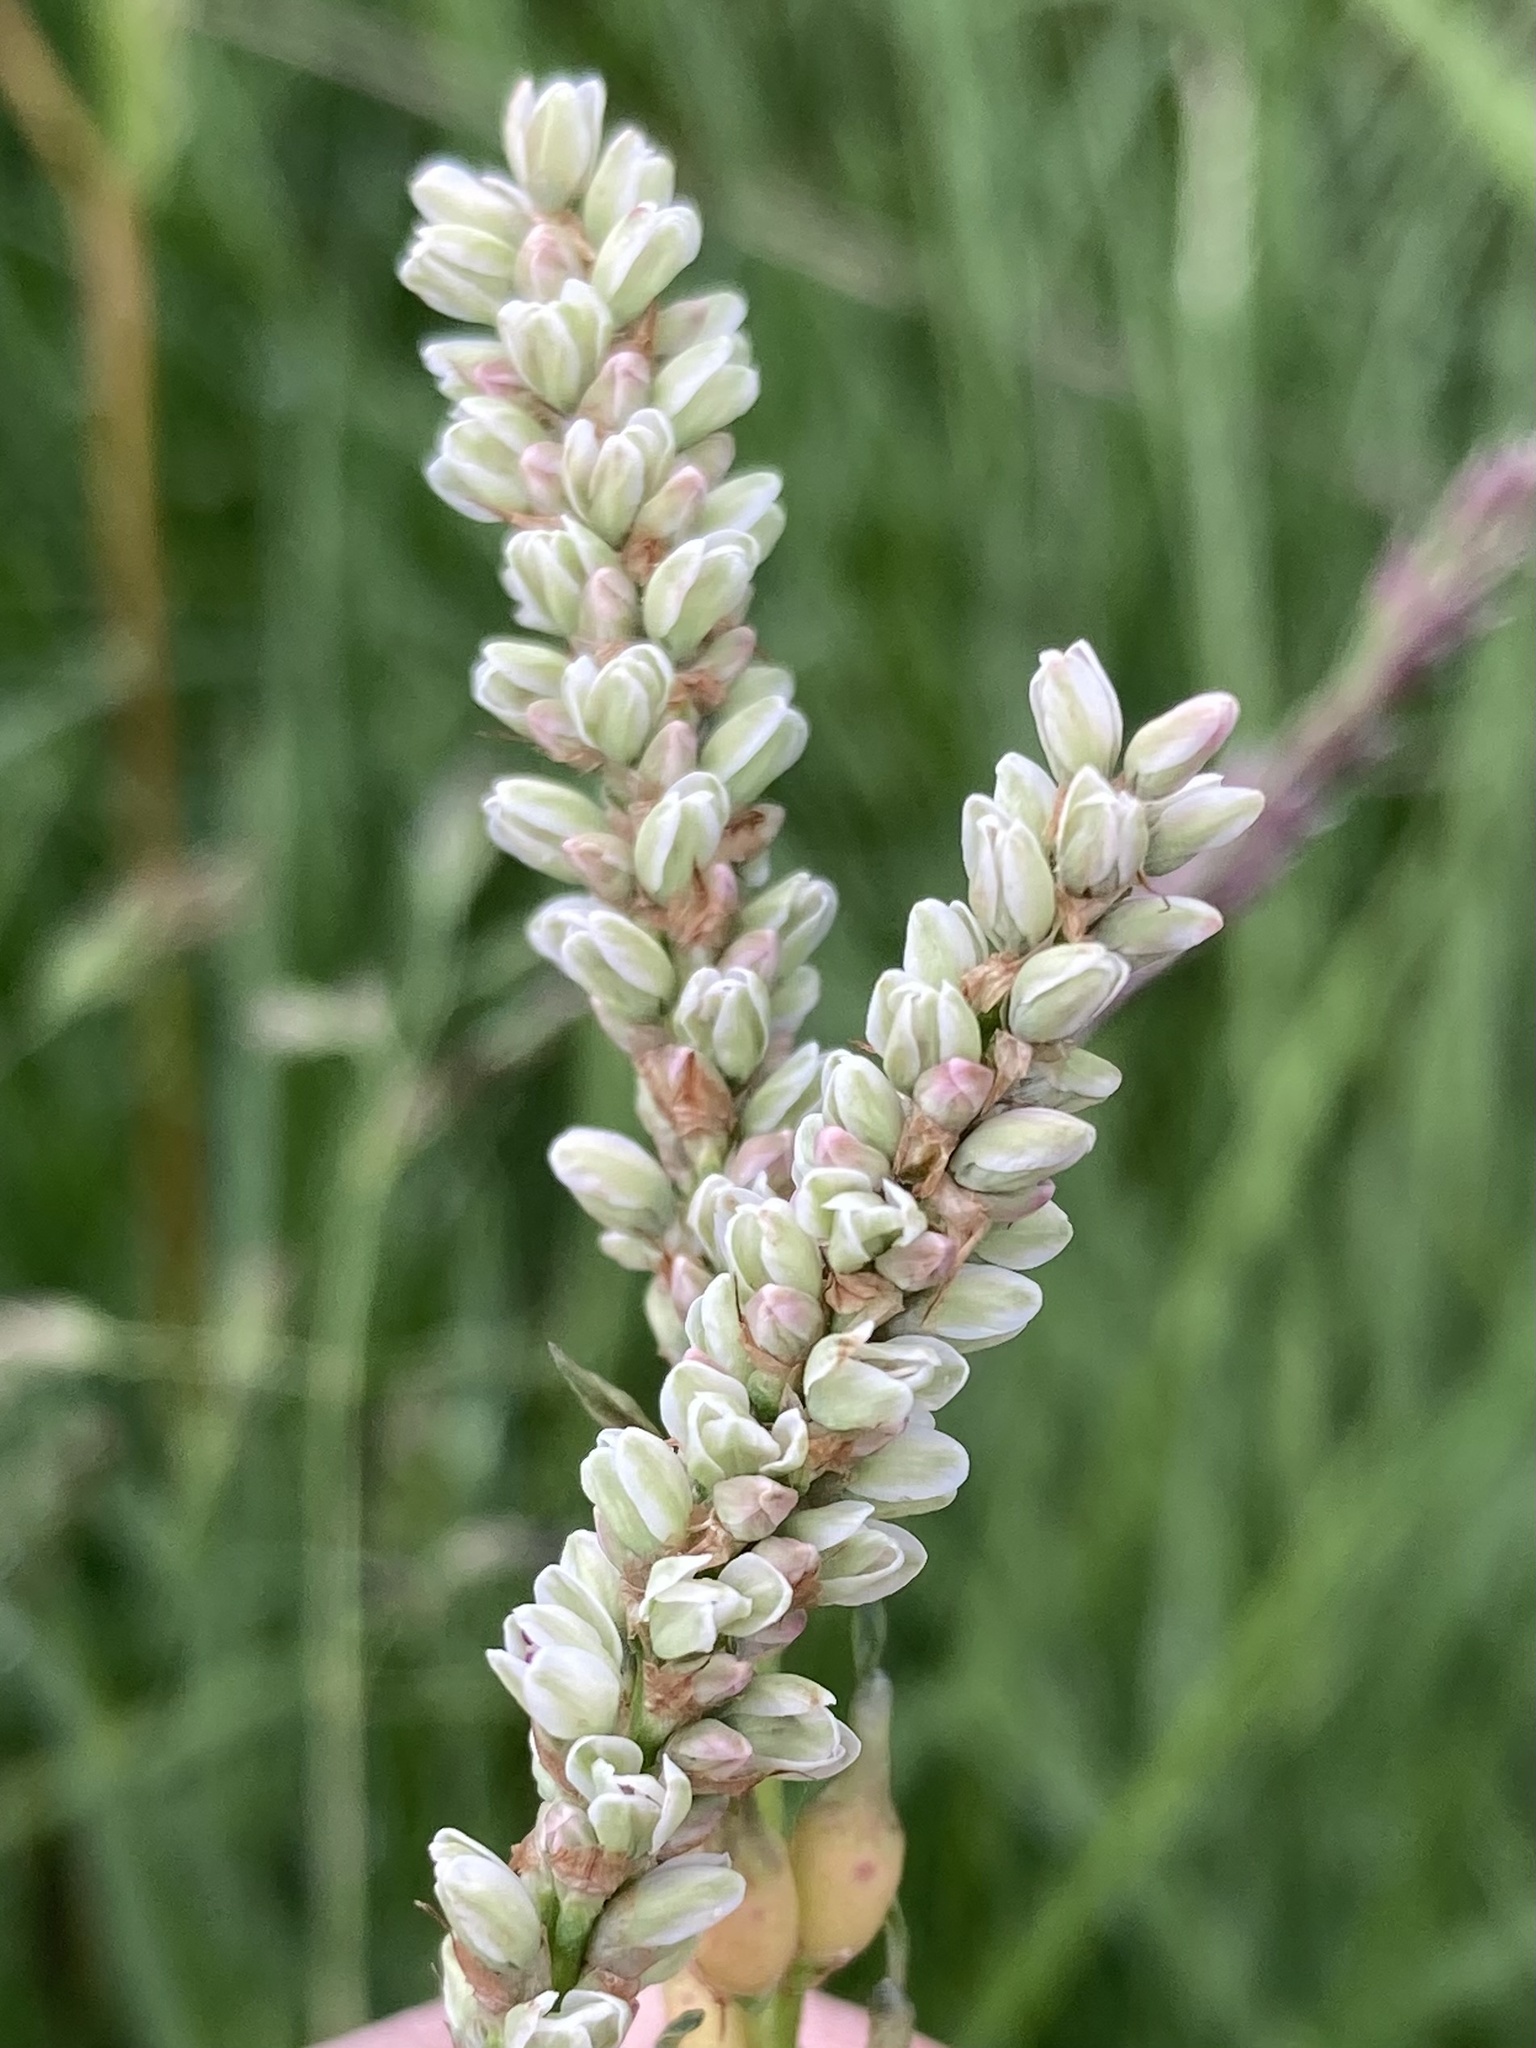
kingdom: Plantae
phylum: Tracheophyta
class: Magnoliopsida
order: Caryophyllales
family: Polygonaceae
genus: Bistorta
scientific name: Bistorta vivipara
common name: Alpine bistort
